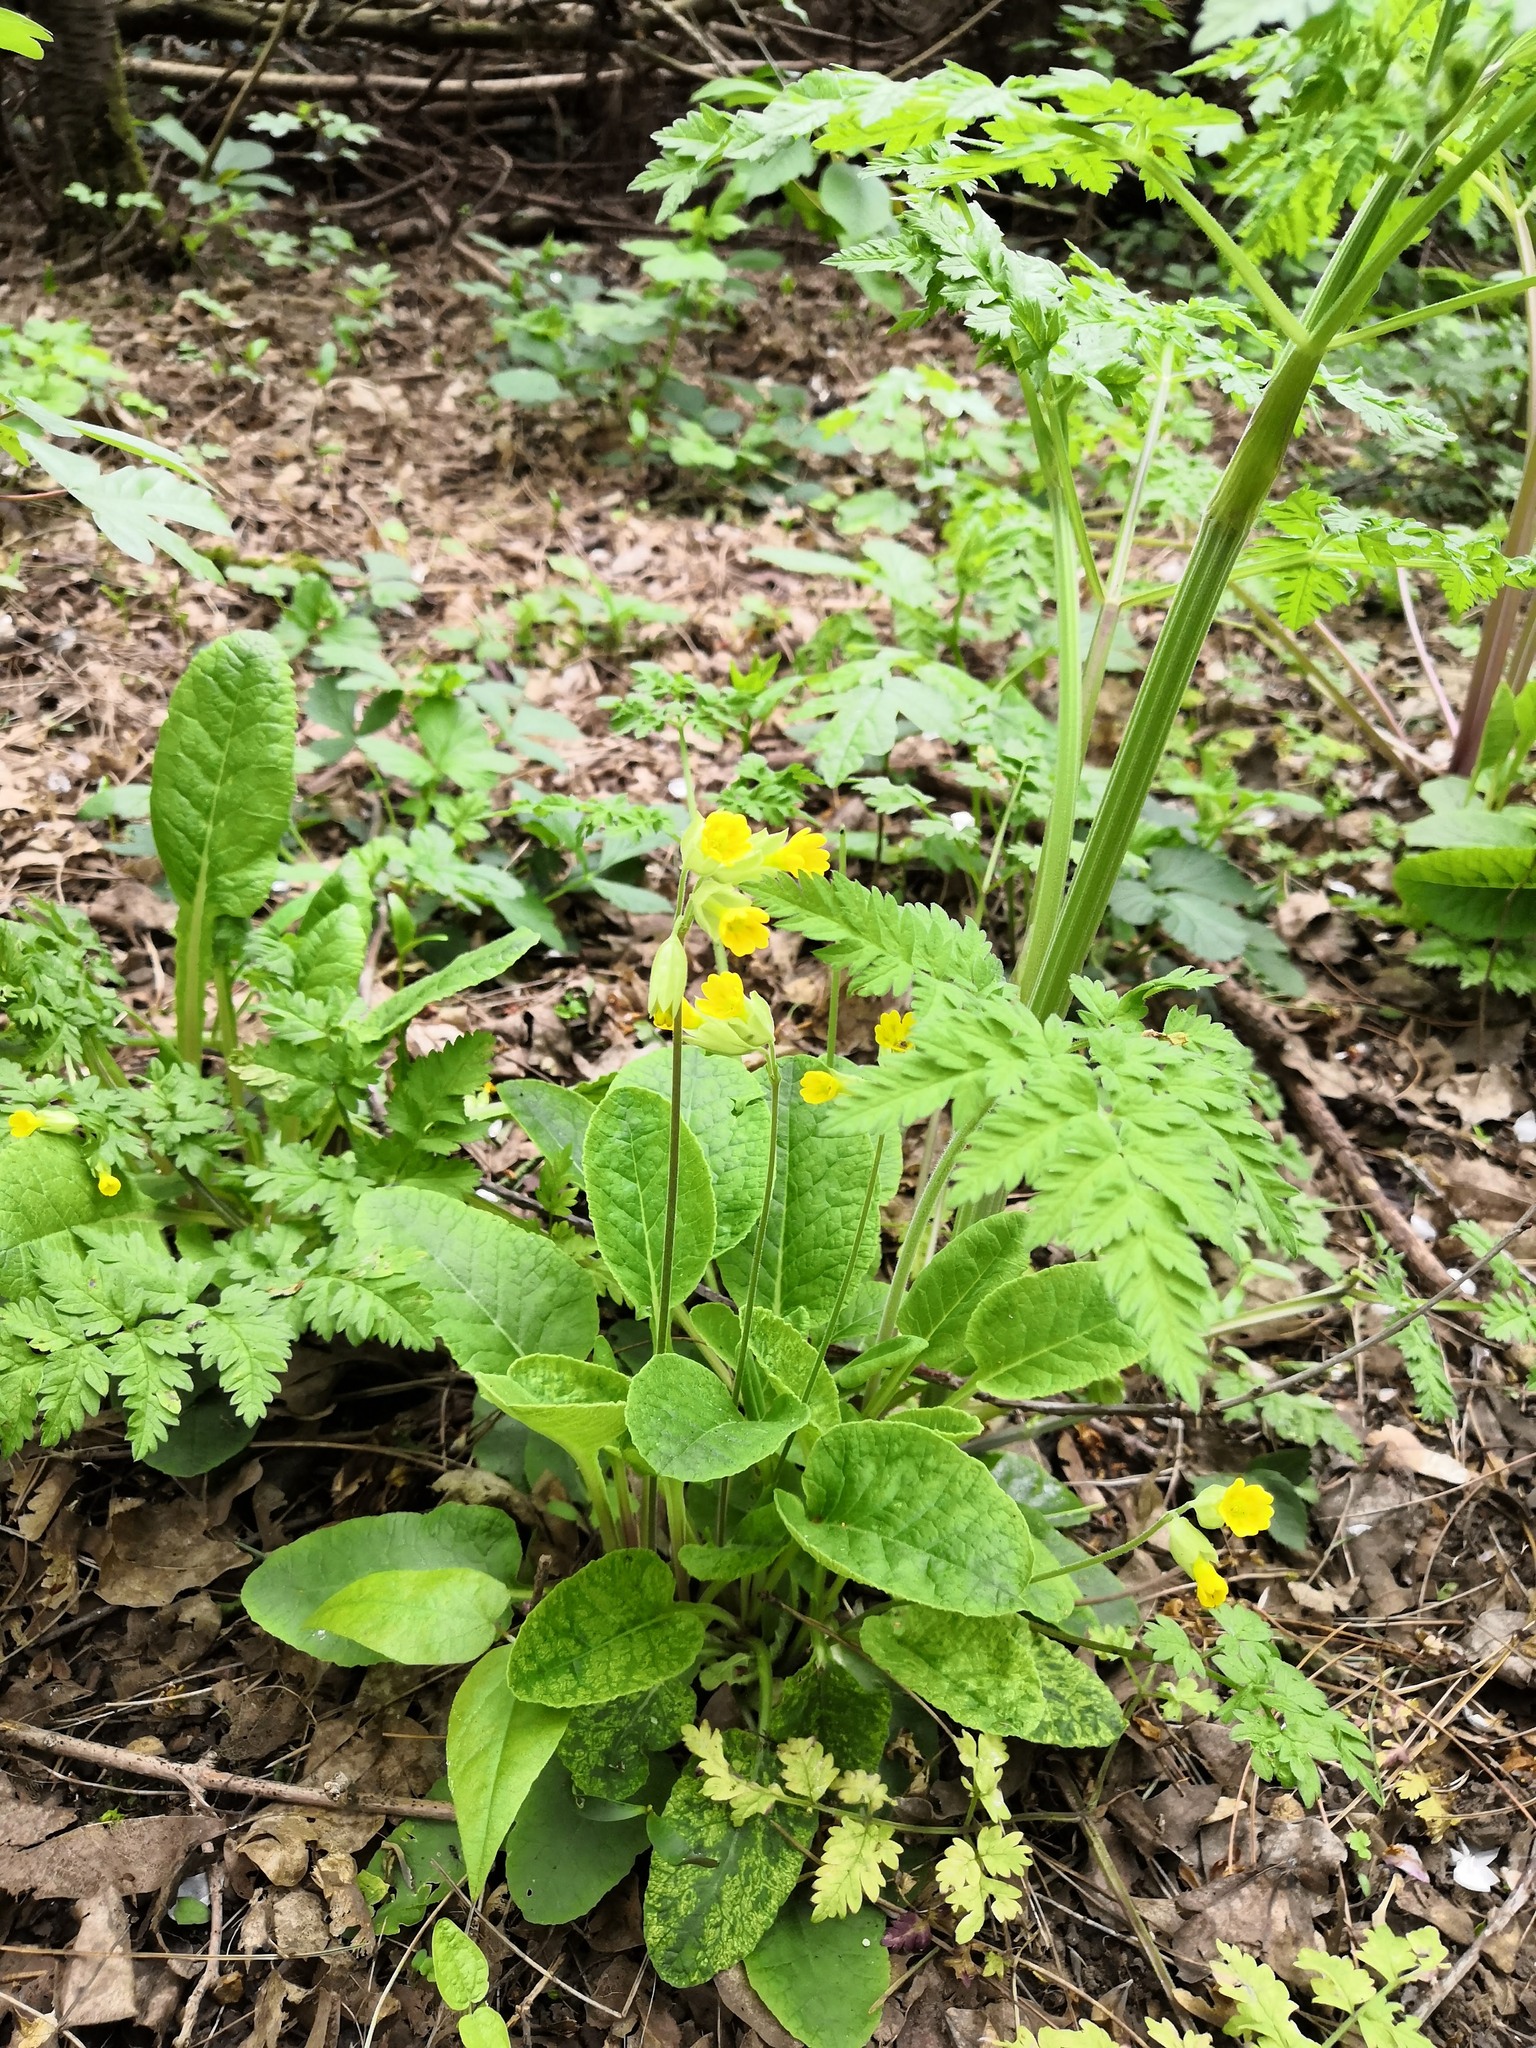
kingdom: Plantae
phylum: Tracheophyta
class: Magnoliopsida
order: Ericales
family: Primulaceae
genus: Primula
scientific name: Primula veris
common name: Cowslip
